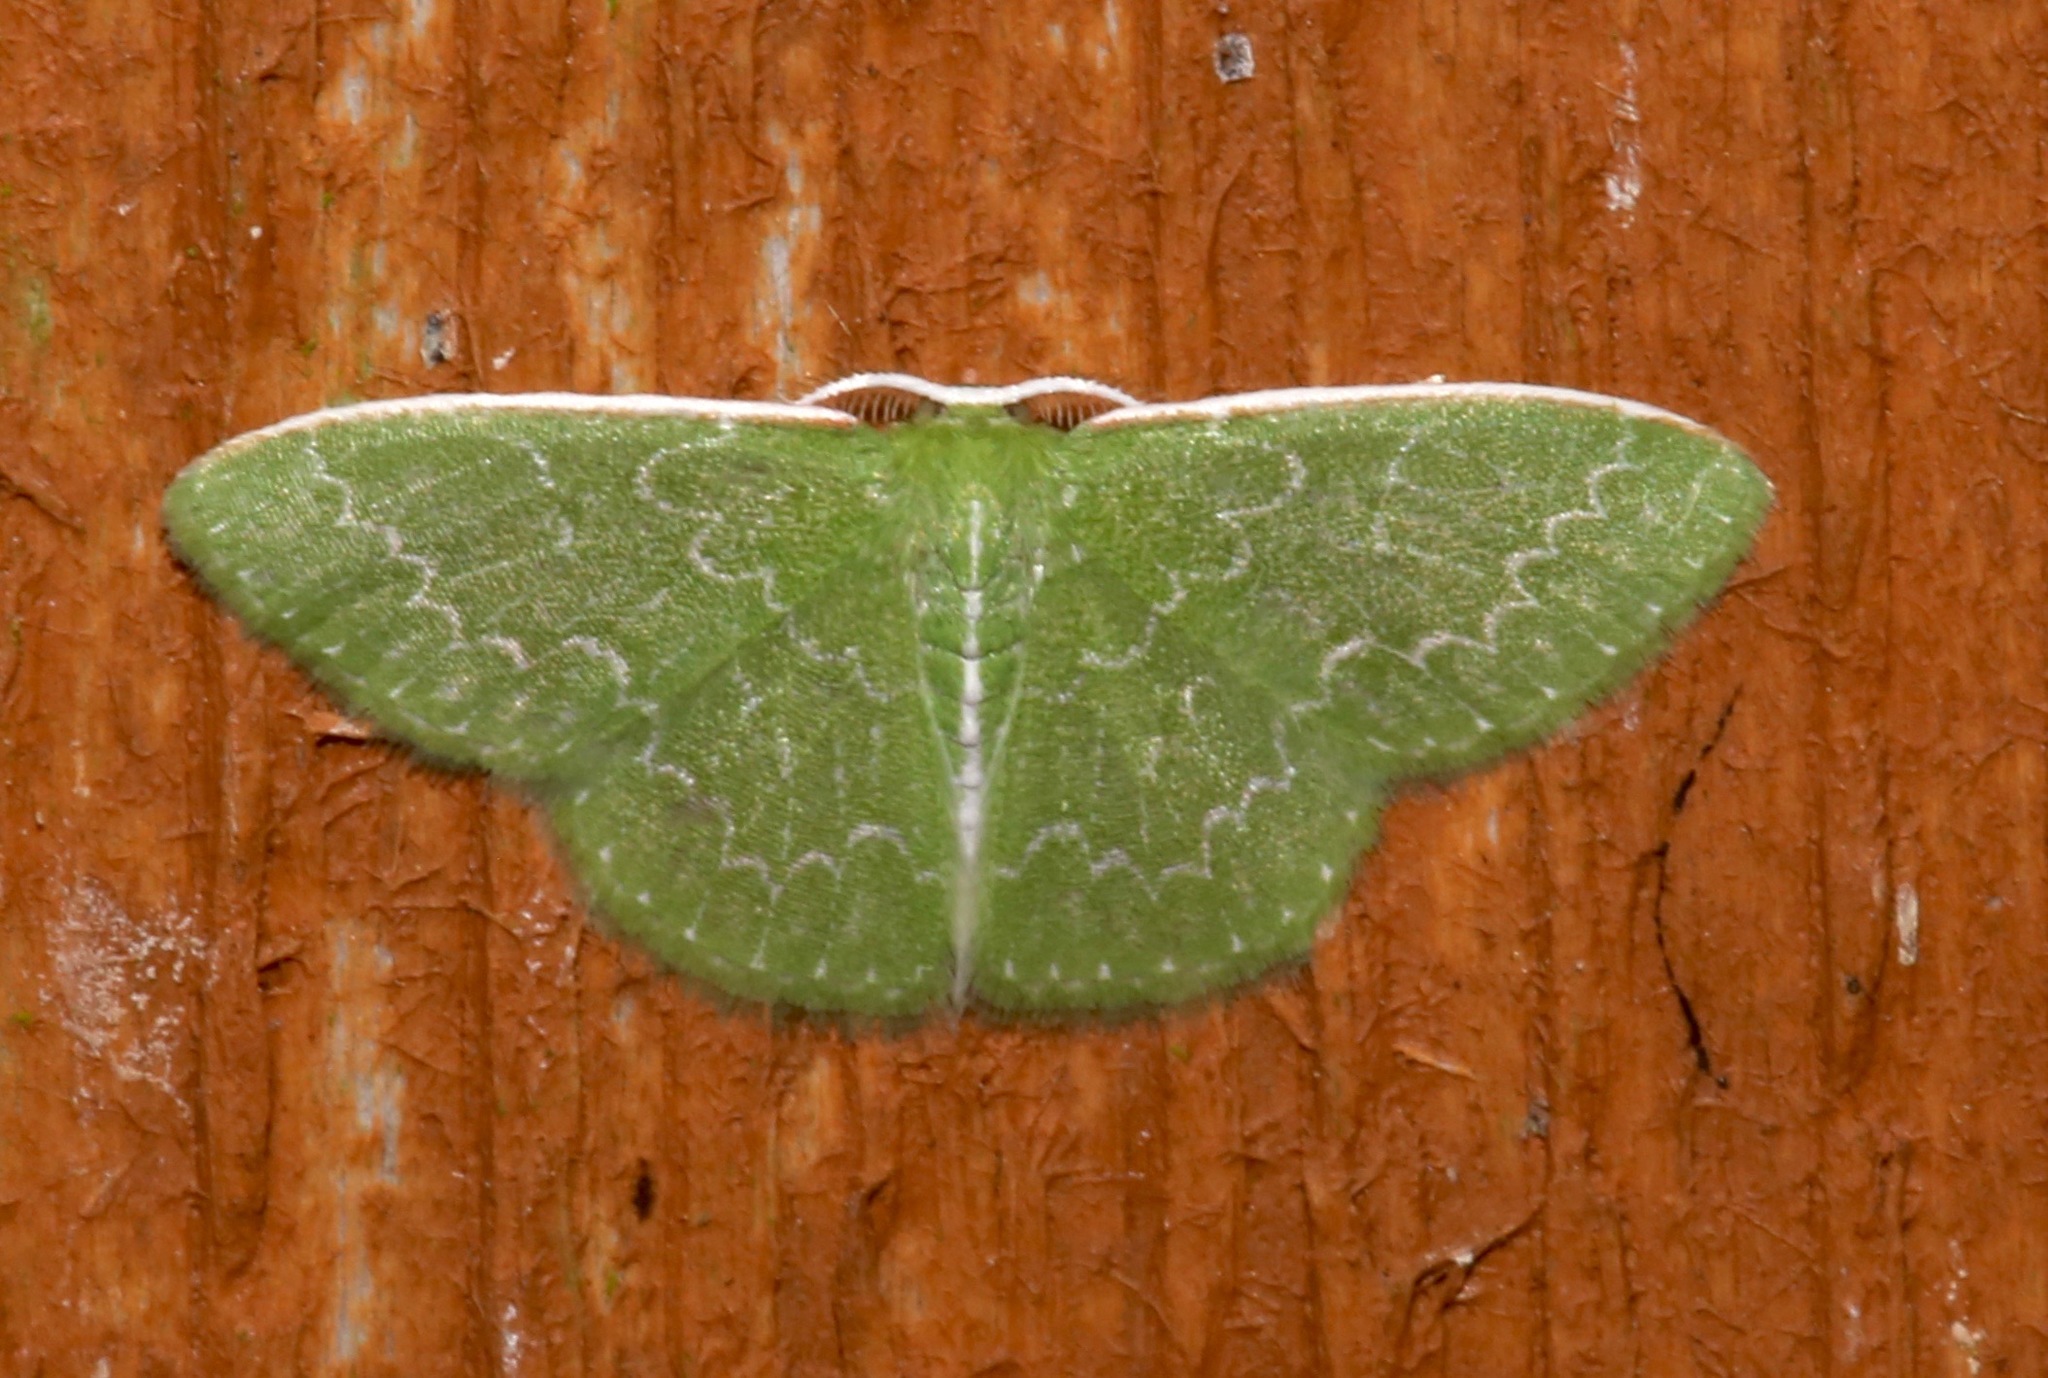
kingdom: Animalia
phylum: Arthropoda
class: Insecta
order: Lepidoptera
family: Geometridae
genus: Synchlora
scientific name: Synchlora frondaria
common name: Southern emerald
